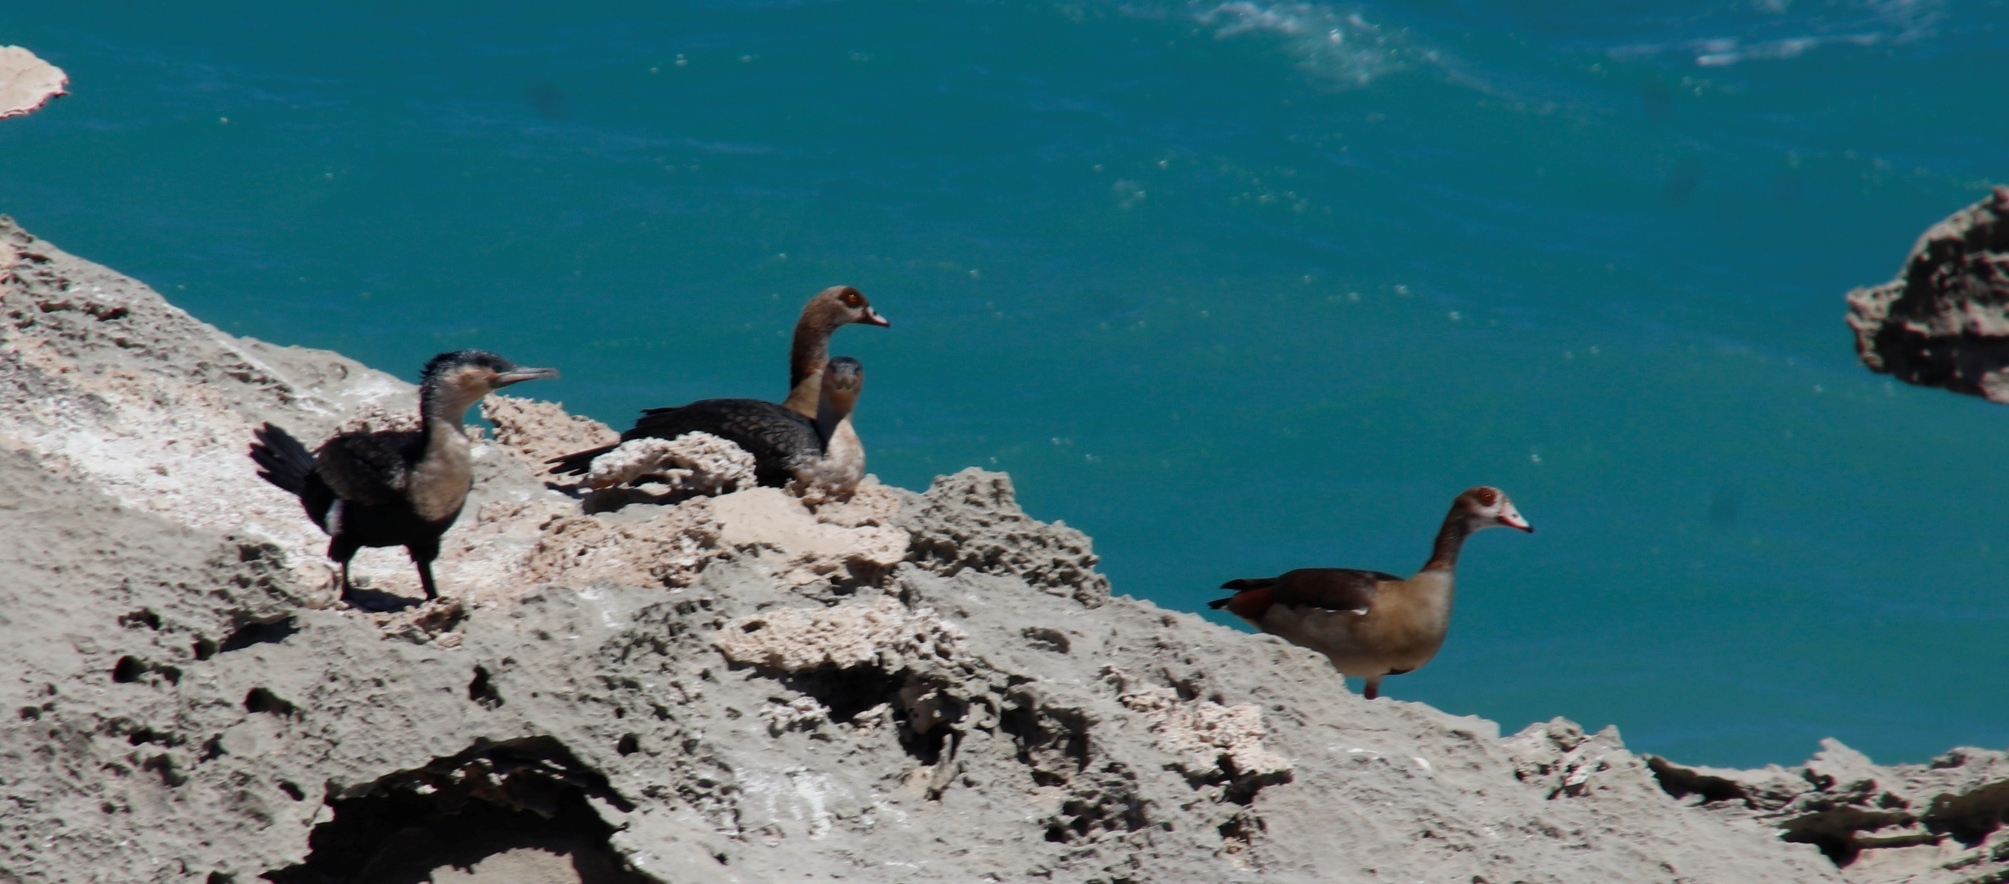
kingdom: Animalia
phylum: Chordata
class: Aves
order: Anseriformes
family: Anatidae
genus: Alopochen
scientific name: Alopochen aegyptiaca
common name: Egyptian goose
